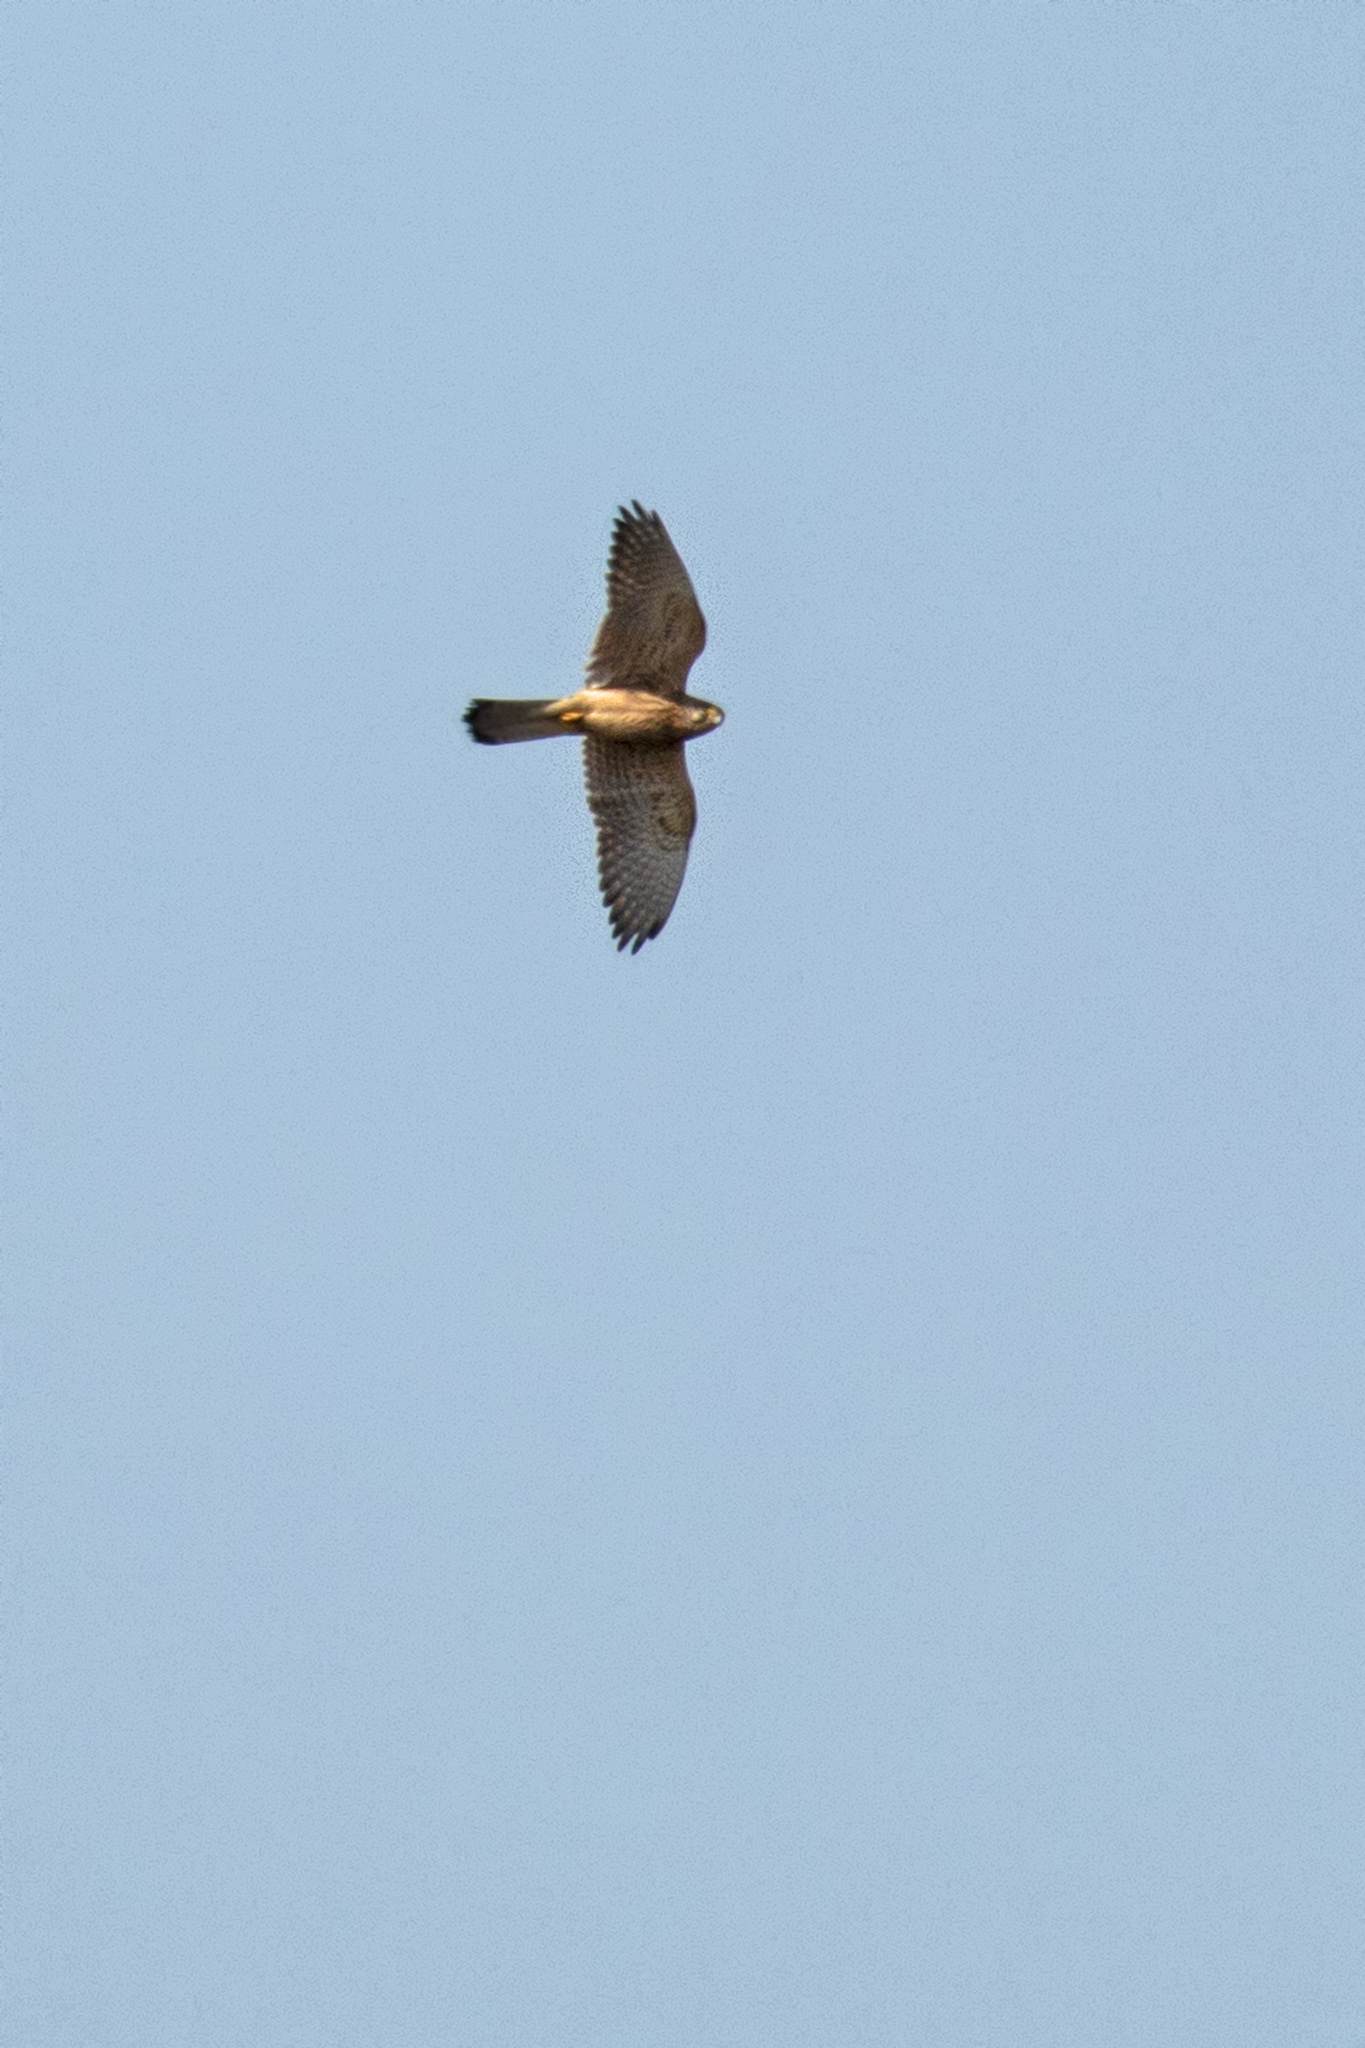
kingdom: Animalia
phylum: Chordata
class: Aves
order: Falconiformes
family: Falconidae
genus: Falco
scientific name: Falco tinnunculus
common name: Common kestrel
